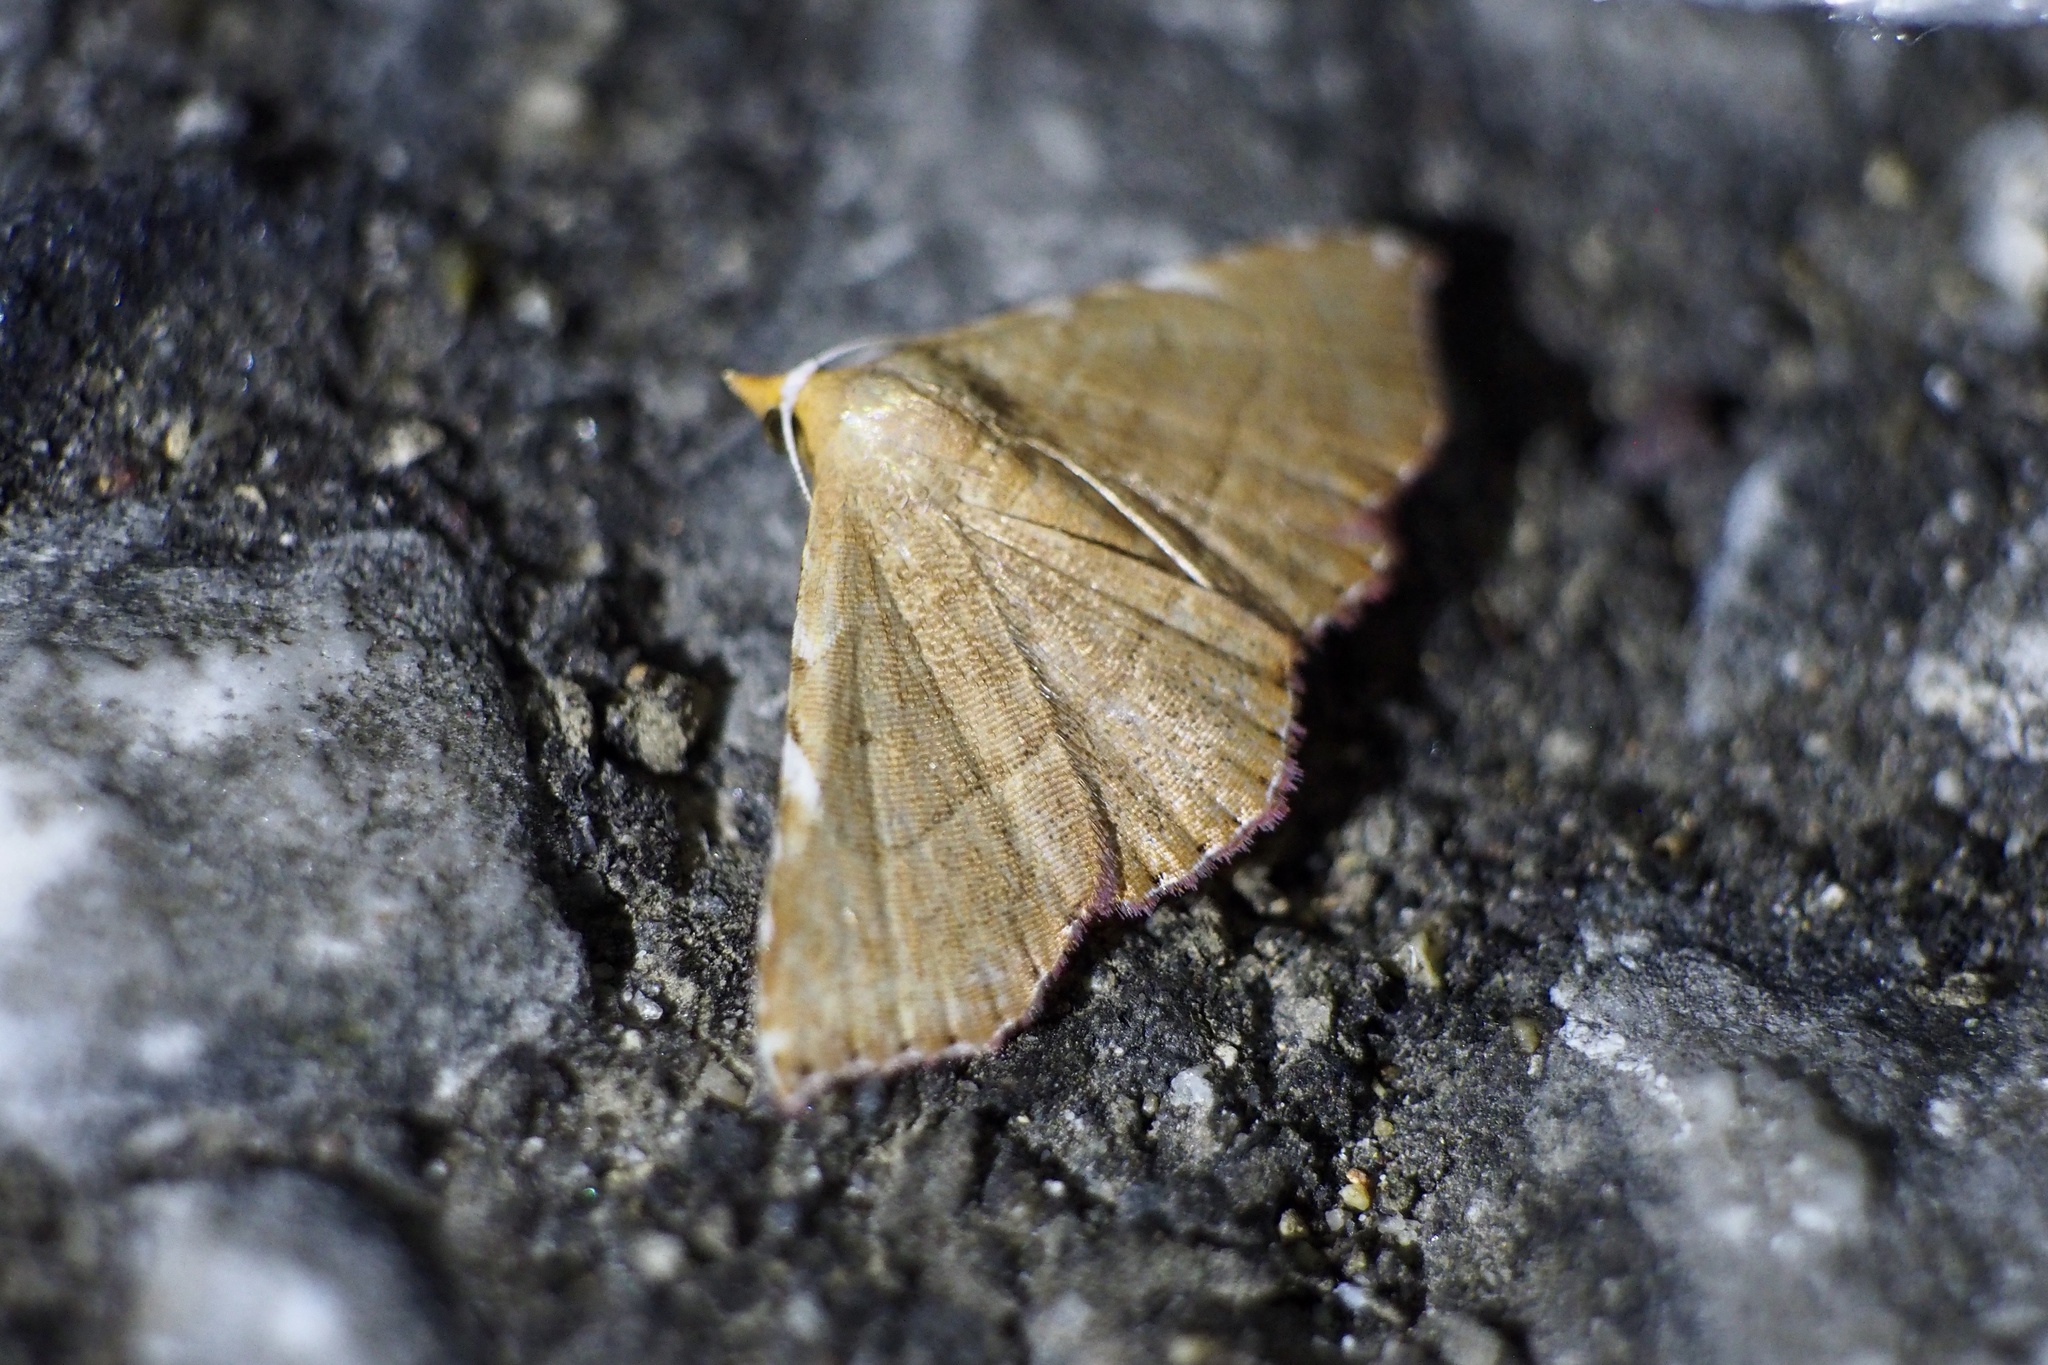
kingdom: Animalia
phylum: Arthropoda
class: Insecta
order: Lepidoptera
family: Erebidae
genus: Corgatha
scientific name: Corgatha argillacea
